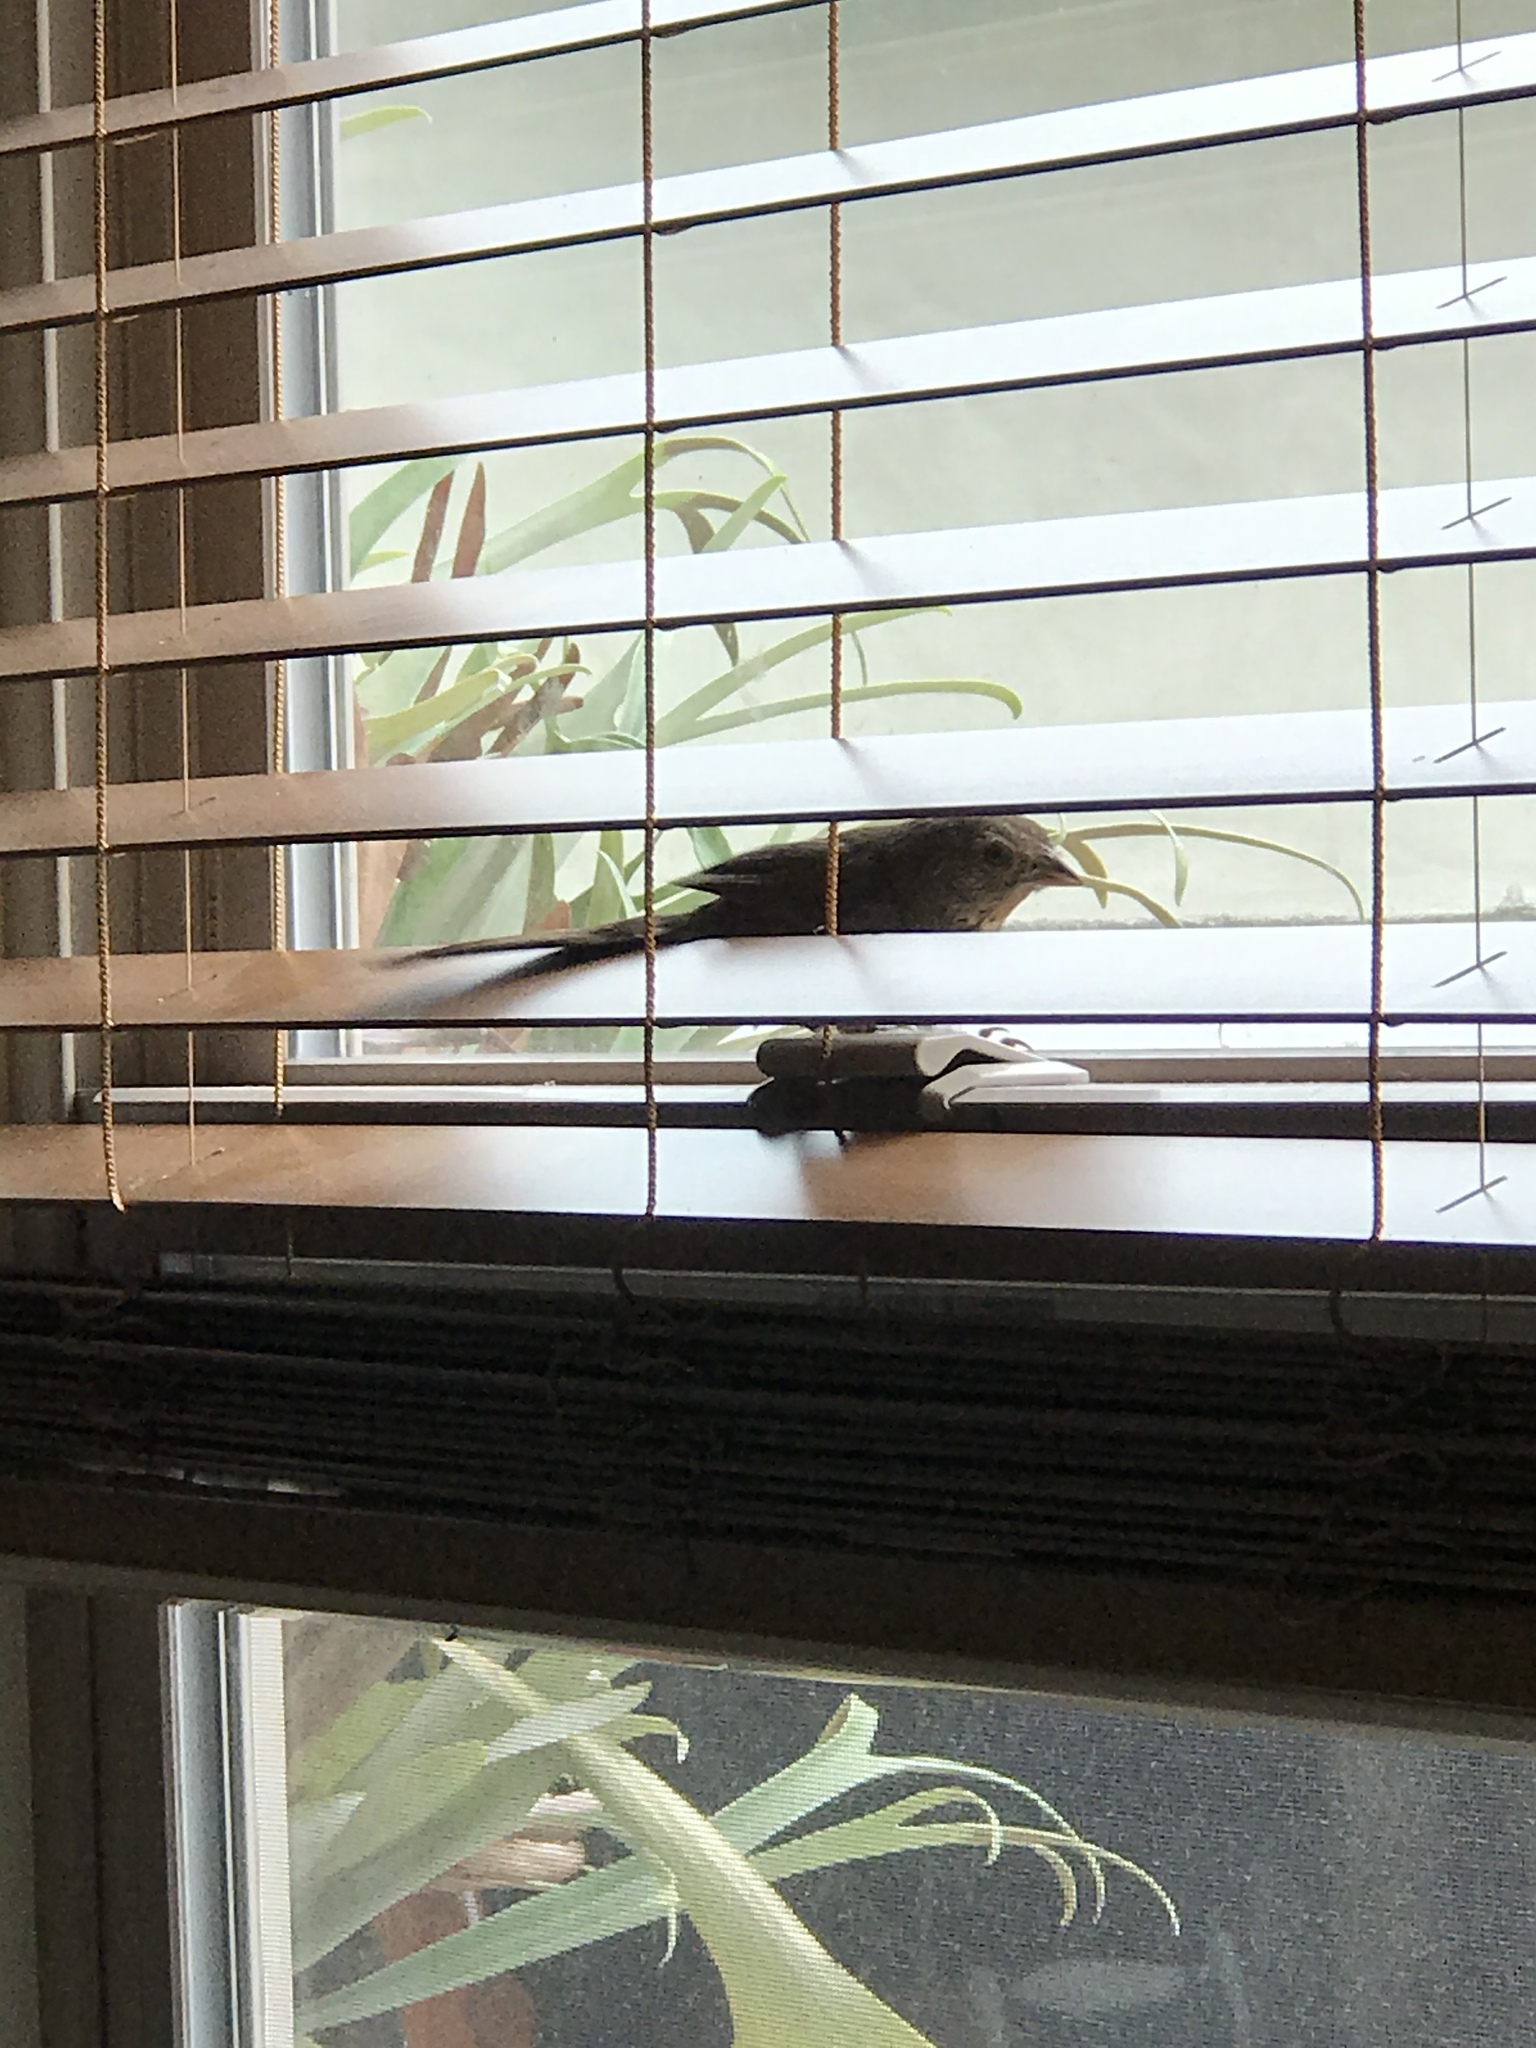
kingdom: Animalia
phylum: Chordata
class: Aves
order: Passeriformes
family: Passerellidae
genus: Melozone
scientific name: Melozone crissalis
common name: California towhee
